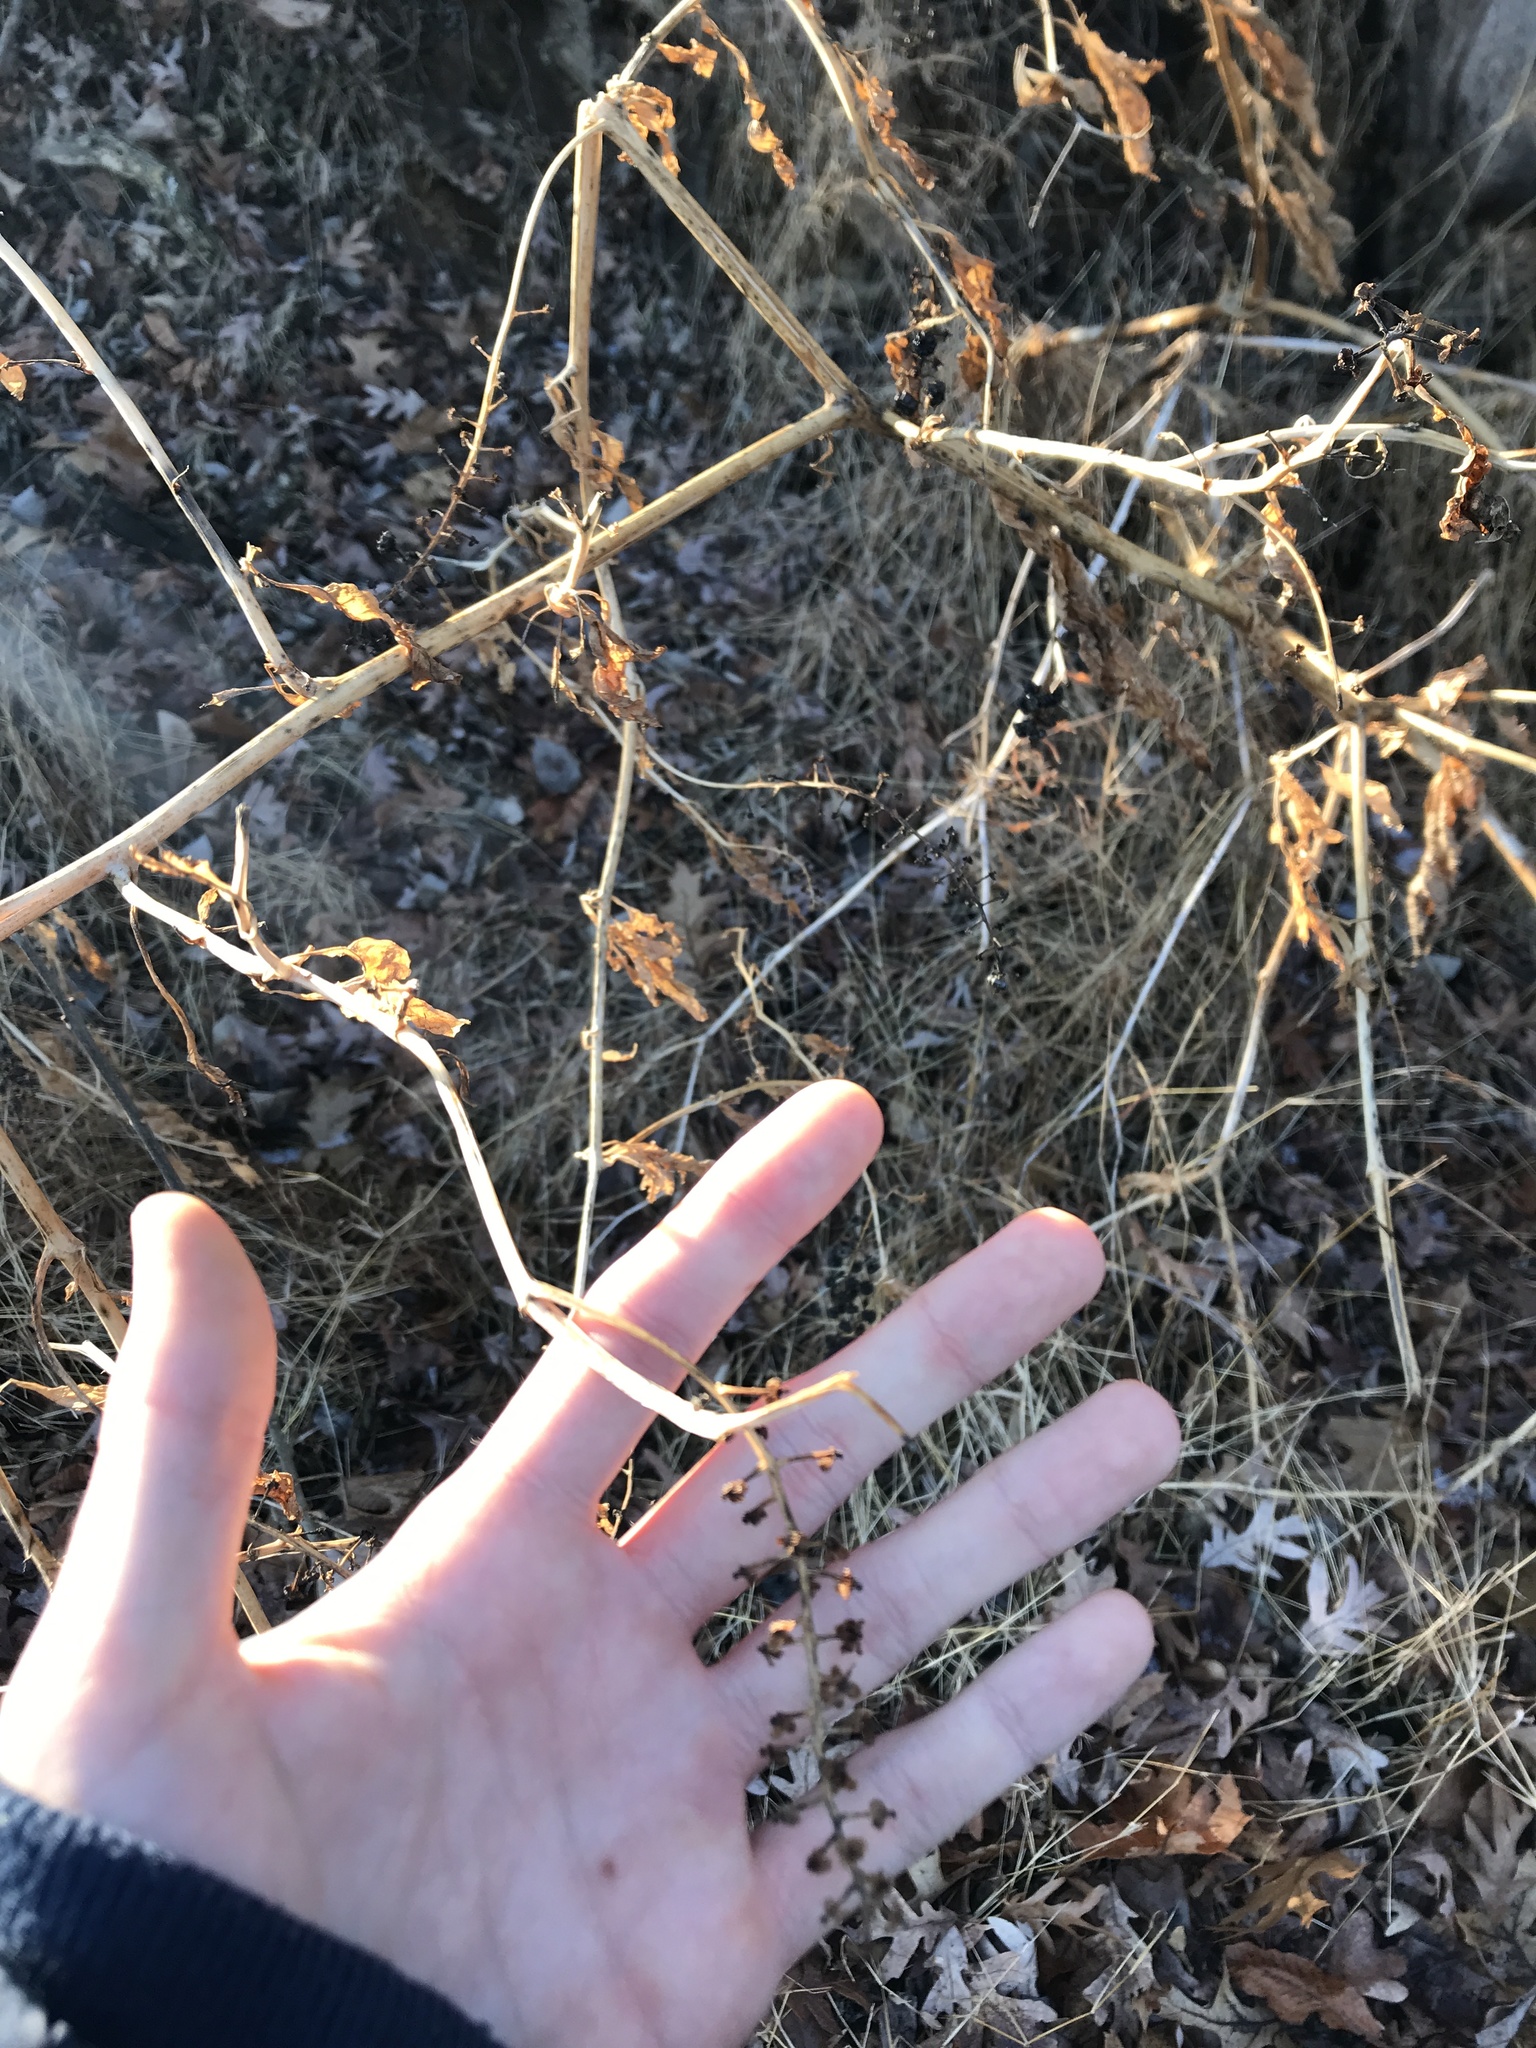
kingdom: Plantae
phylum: Tracheophyta
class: Magnoliopsida
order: Caryophyllales
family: Phytolaccaceae
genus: Phytolacca
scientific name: Phytolacca americana
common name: American pokeweed
